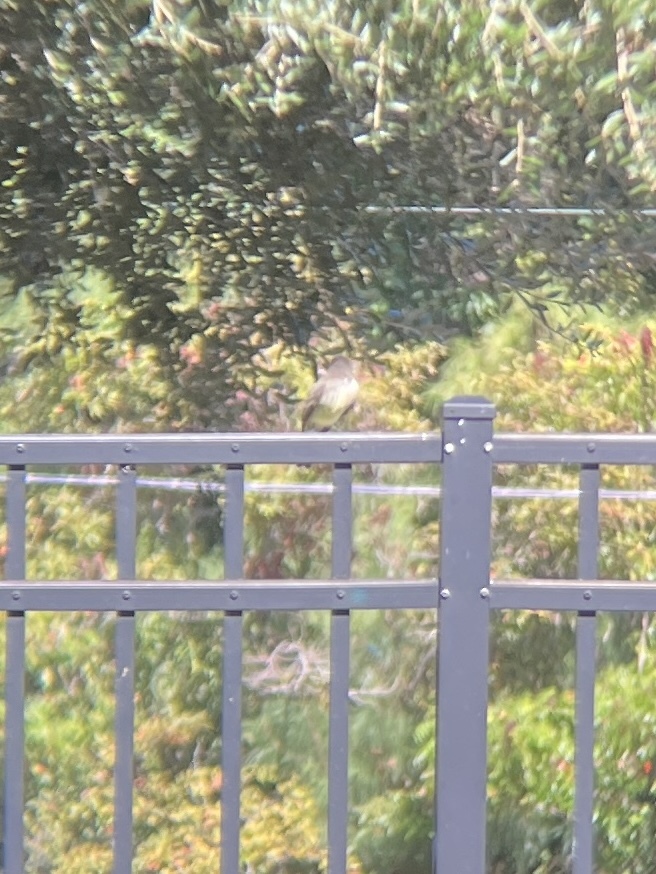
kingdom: Animalia
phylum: Chordata
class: Aves
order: Passeriformes
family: Tyrannidae
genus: Sayornis
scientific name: Sayornis phoebe
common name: Eastern phoebe
